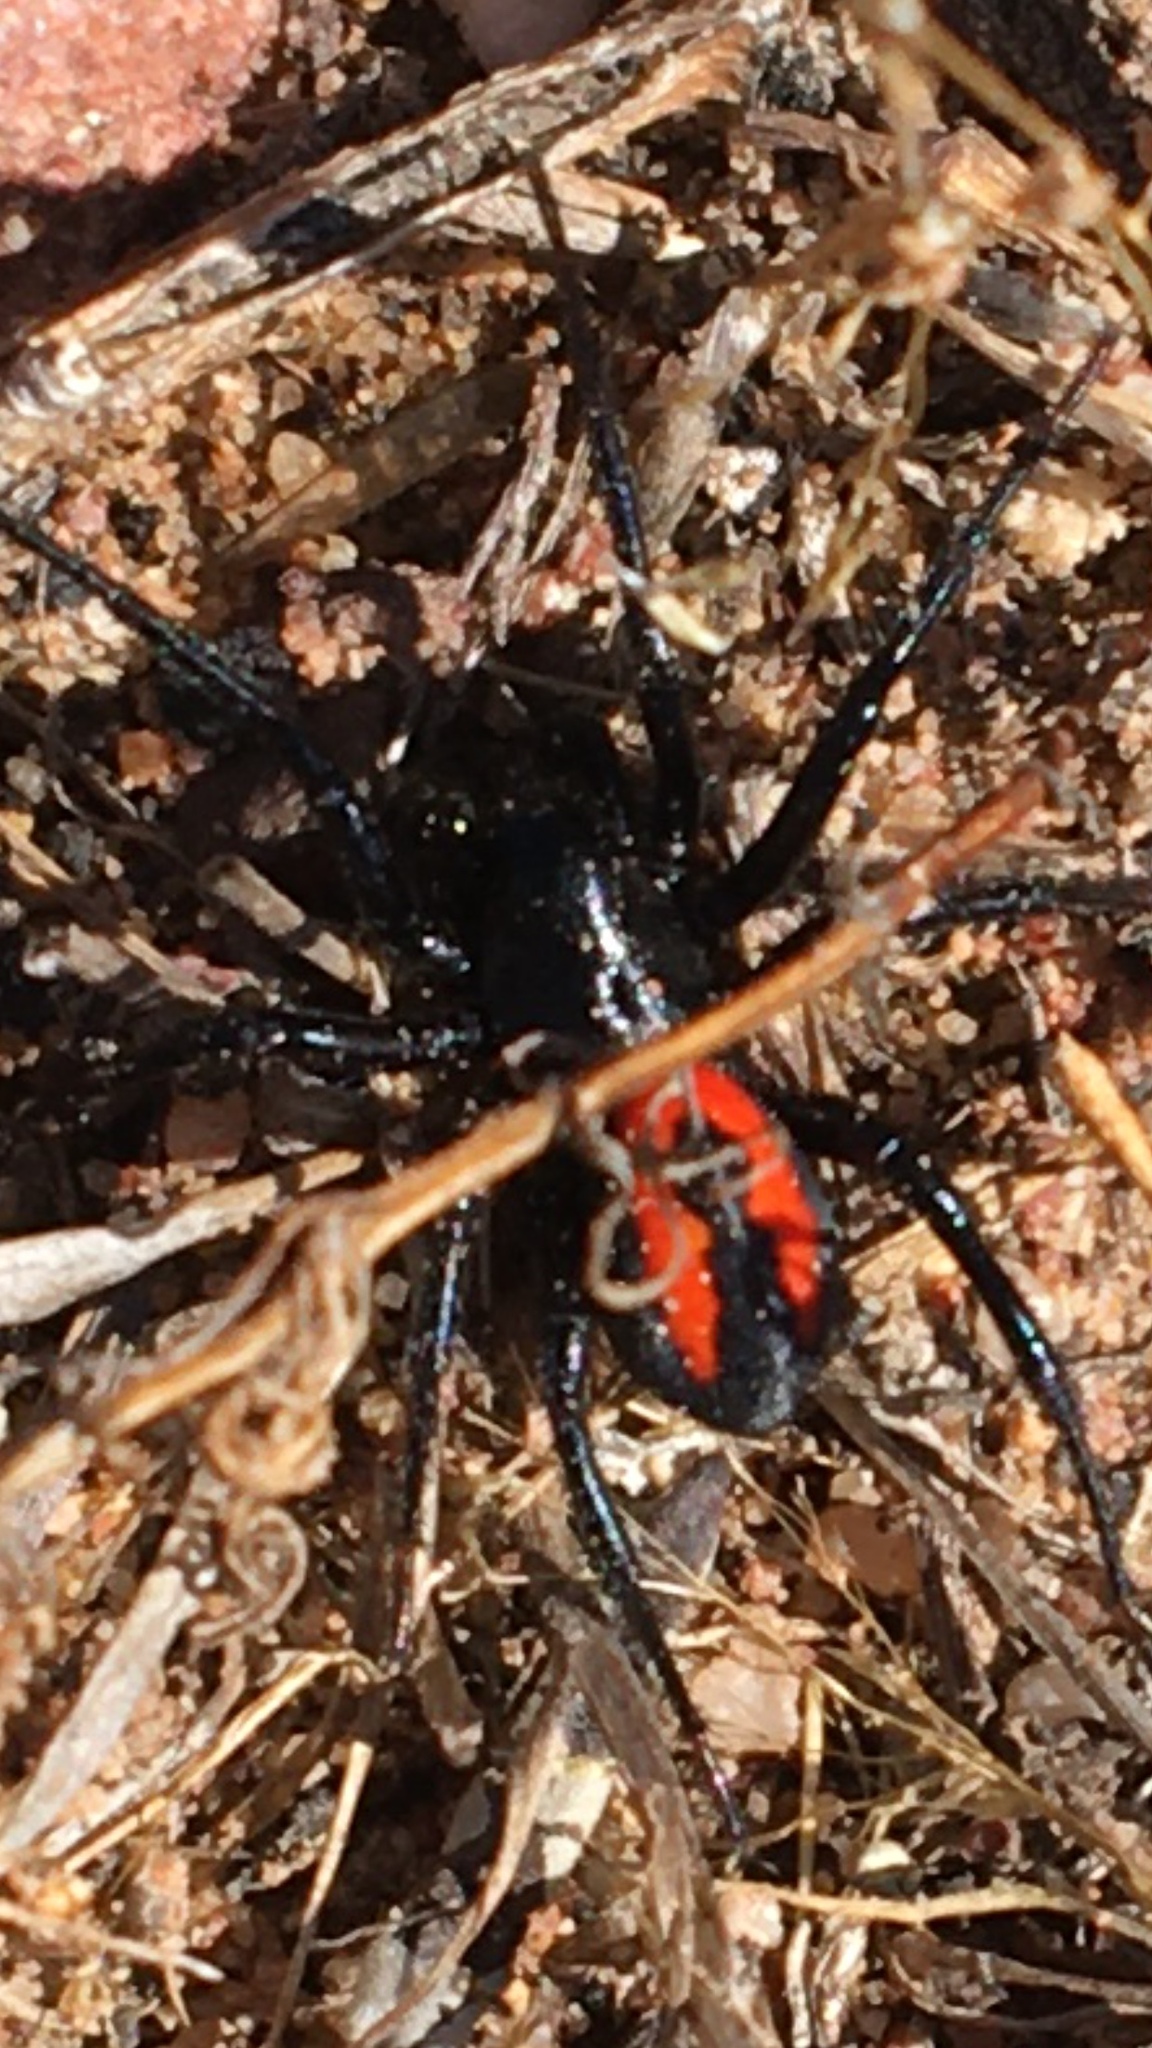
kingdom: Animalia
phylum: Arthropoda
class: Arachnida
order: Araneae
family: Zodariidae
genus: Psammorygma
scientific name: Psammorygma aculeatum
